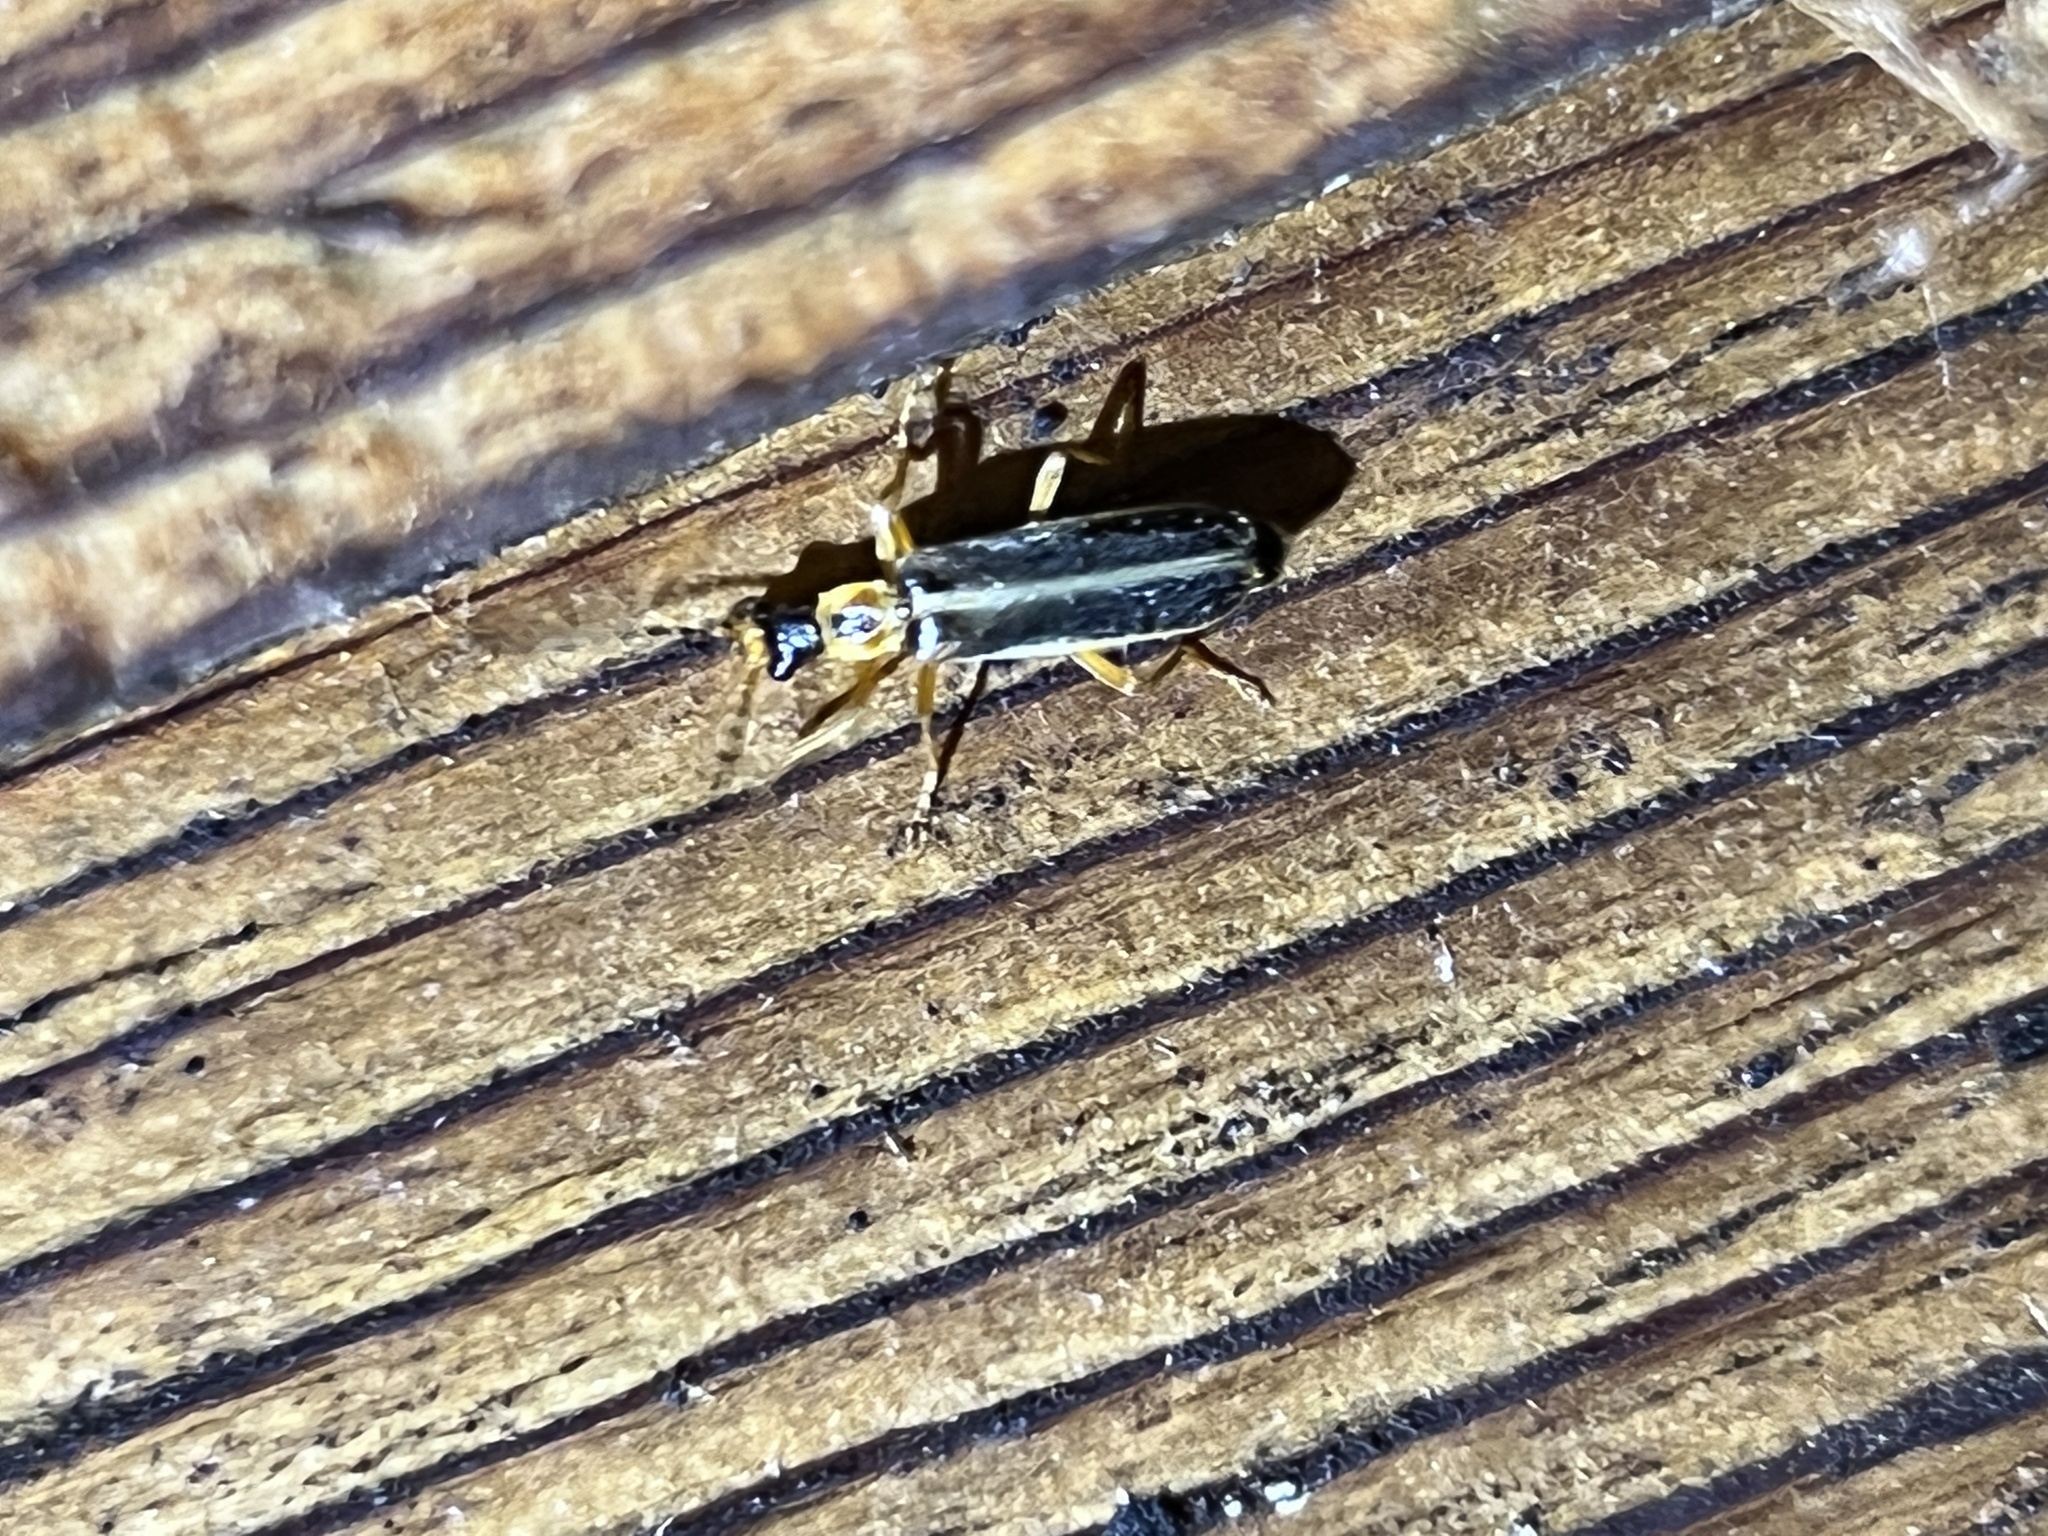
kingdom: Animalia
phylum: Arthropoda
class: Insecta
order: Coleoptera
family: Cantharidae
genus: Podabrus
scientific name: Podabrus brunnicollis
